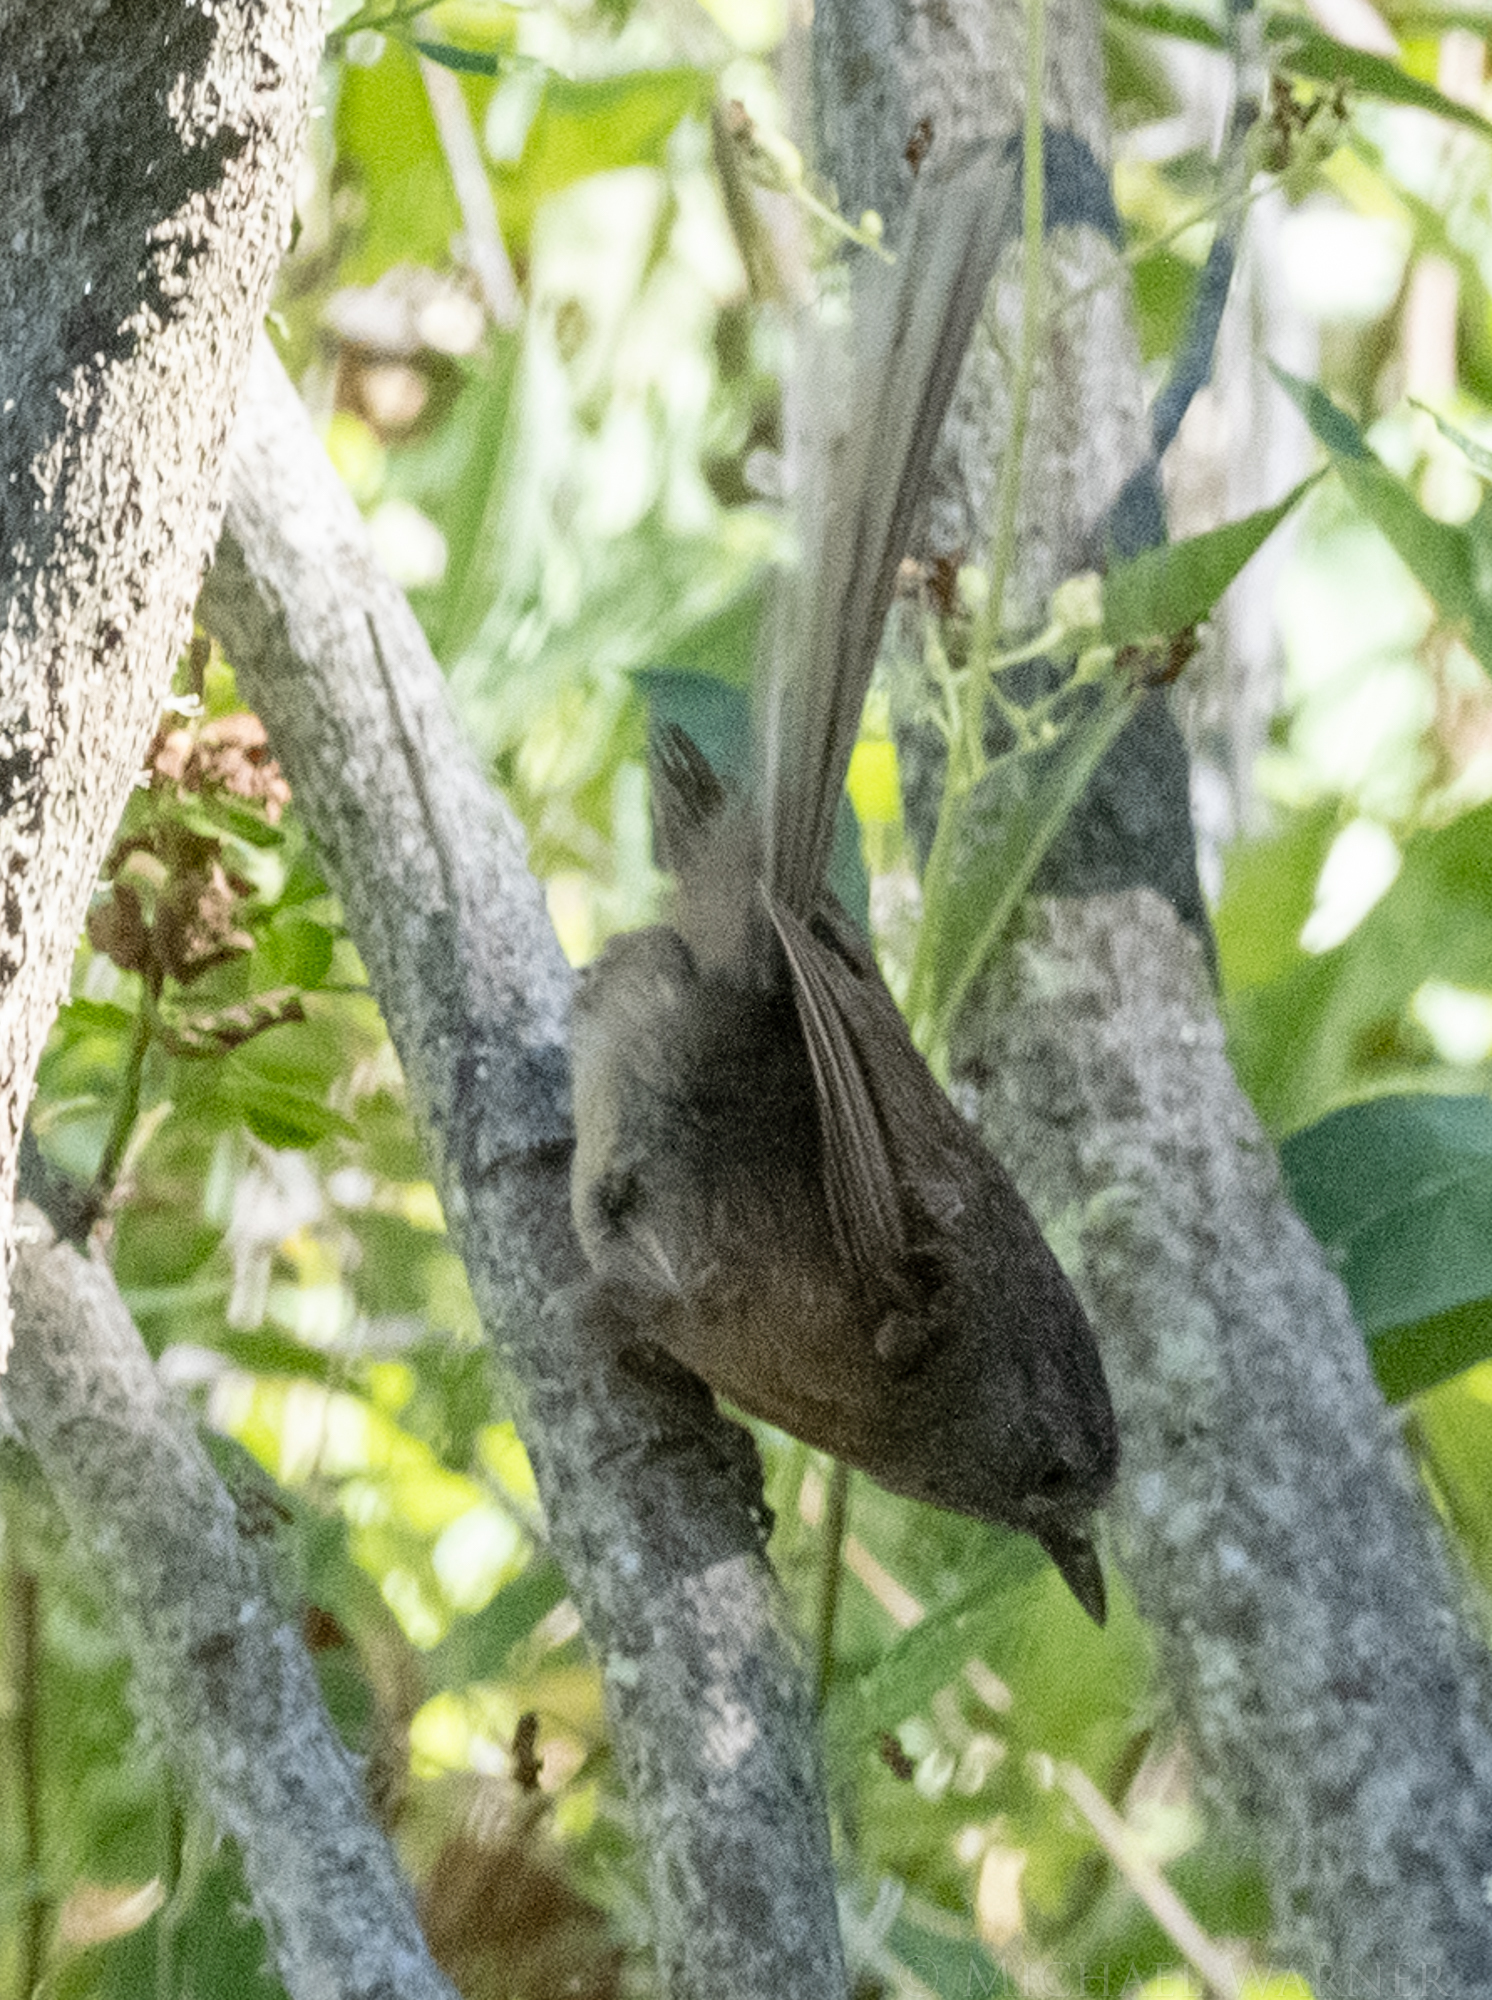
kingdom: Animalia
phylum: Chordata
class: Aves
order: Passeriformes
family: Sylviidae
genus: Chamaea
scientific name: Chamaea fasciata
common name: Wrentit
